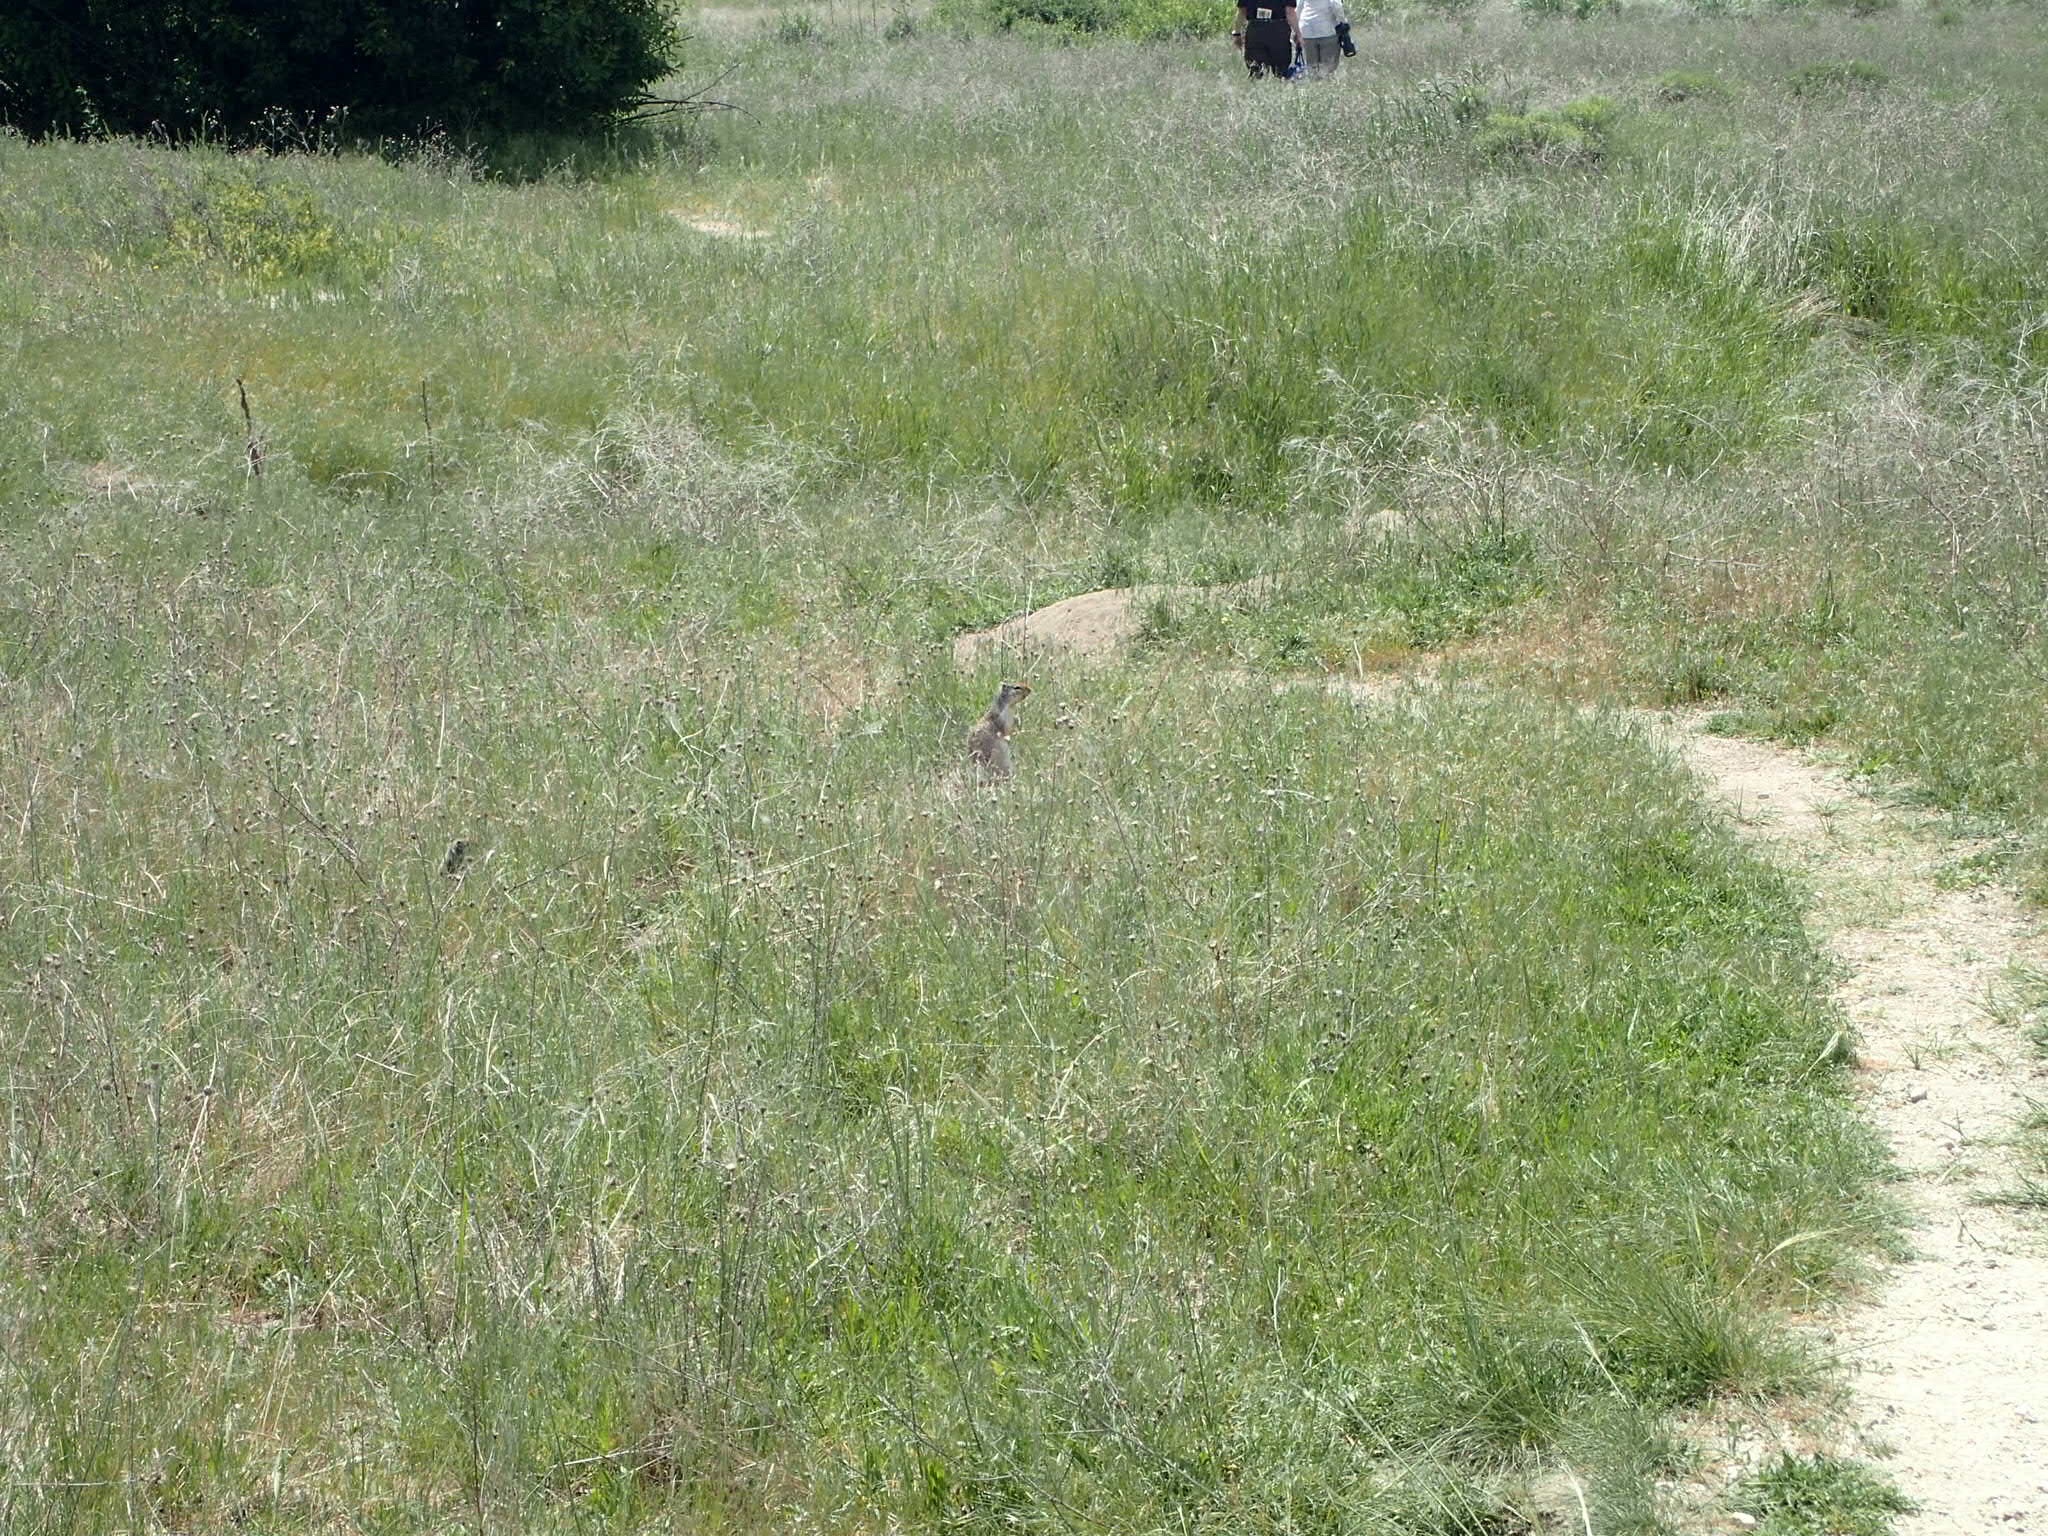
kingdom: Animalia
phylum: Chordata
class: Mammalia
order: Rodentia
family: Sciuridae
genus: Urocitellus
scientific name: Urocitellus columbianus
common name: Columbian ground squirrel
